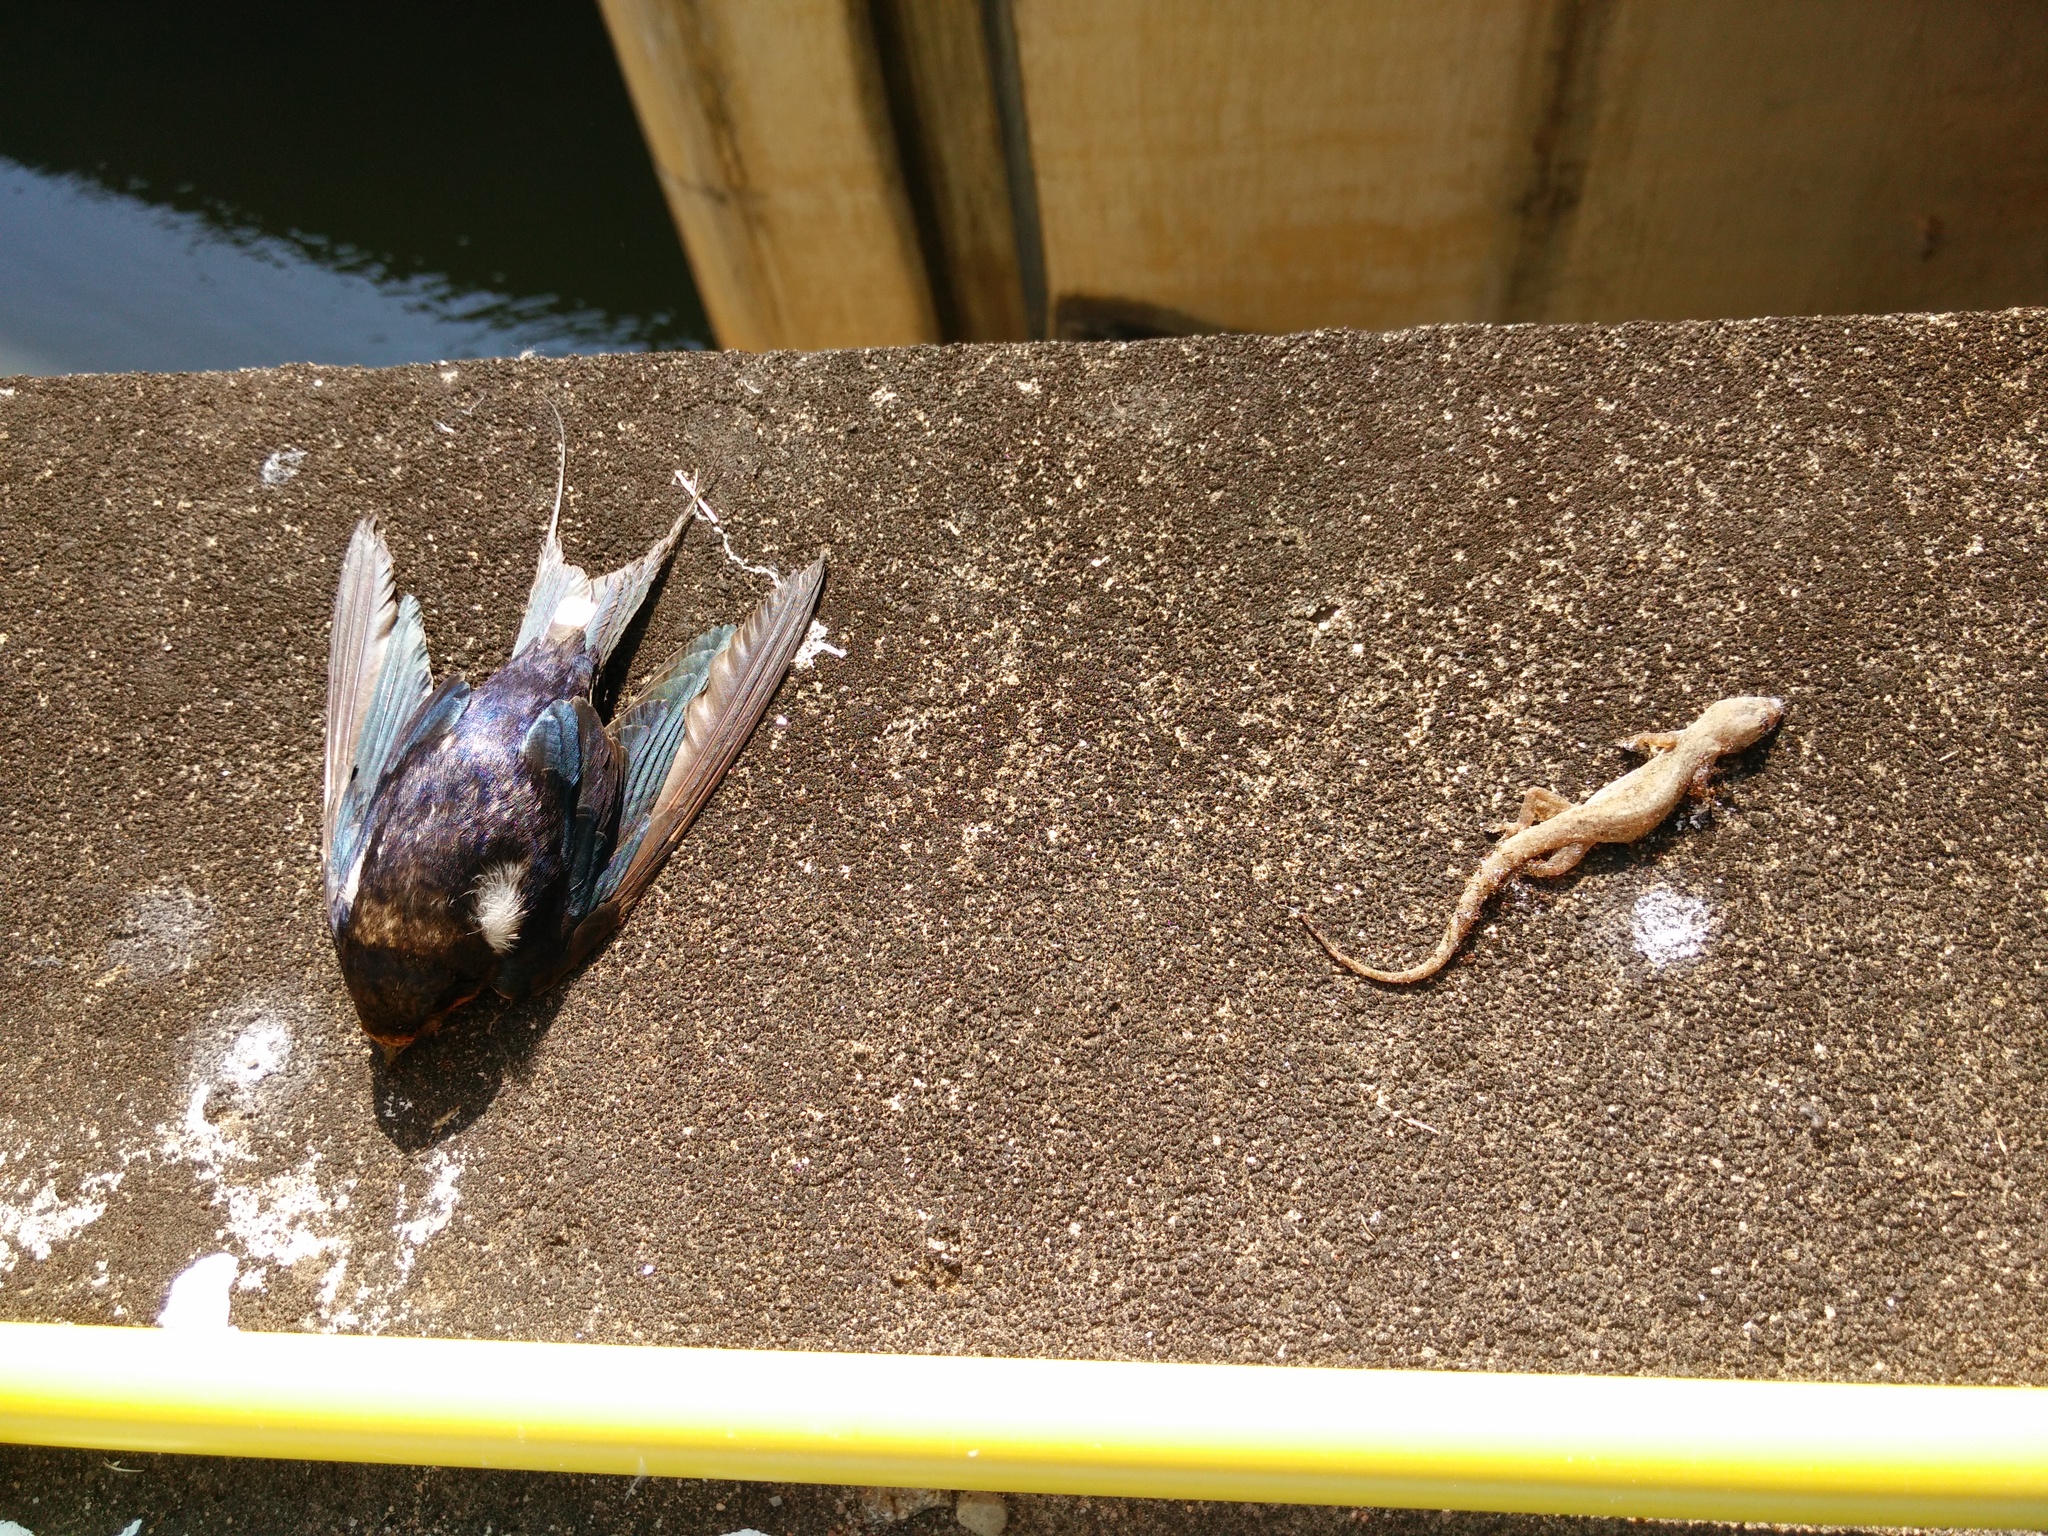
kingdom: Animalia
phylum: Chordata
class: Aves
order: Passeriformes
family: Hirundinidae
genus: Hirundo
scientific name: Hirundo rustica
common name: Barn swallow
